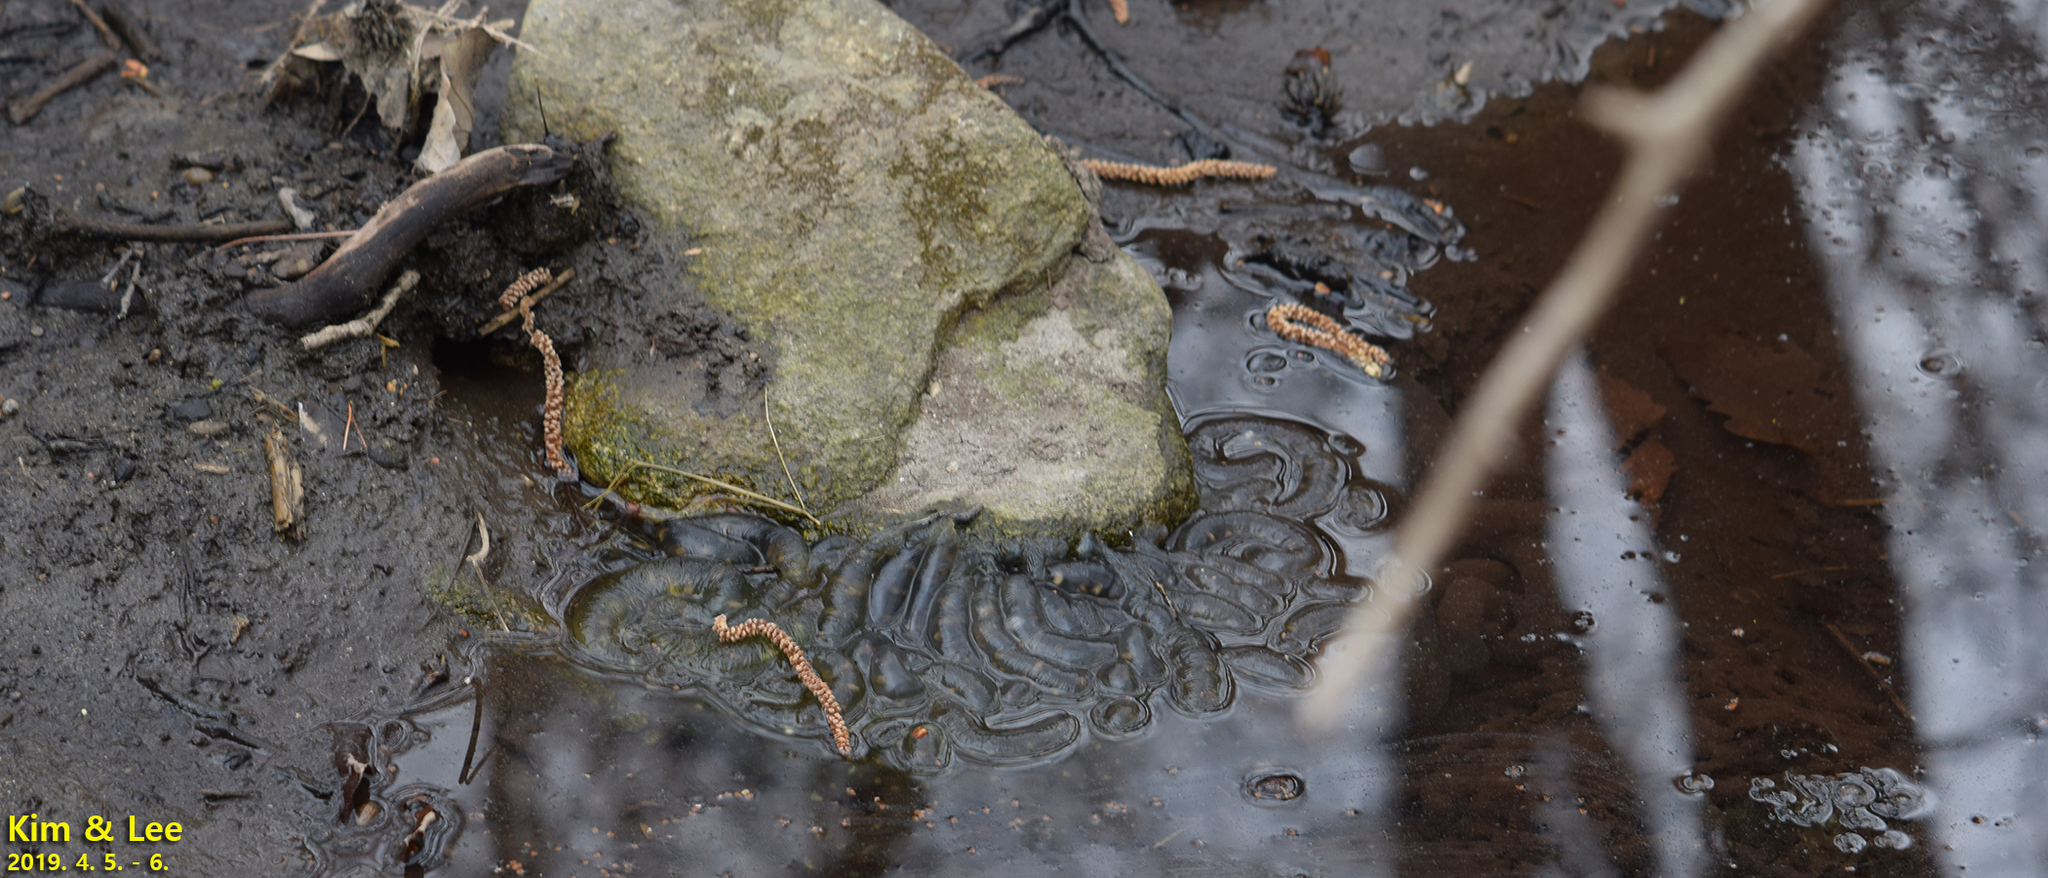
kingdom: Animalia
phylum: Chordata
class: Amphibia
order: Caudata
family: Hynobiidae
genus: Hynobius
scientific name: Hynobius leechii
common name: Gensan salamander
